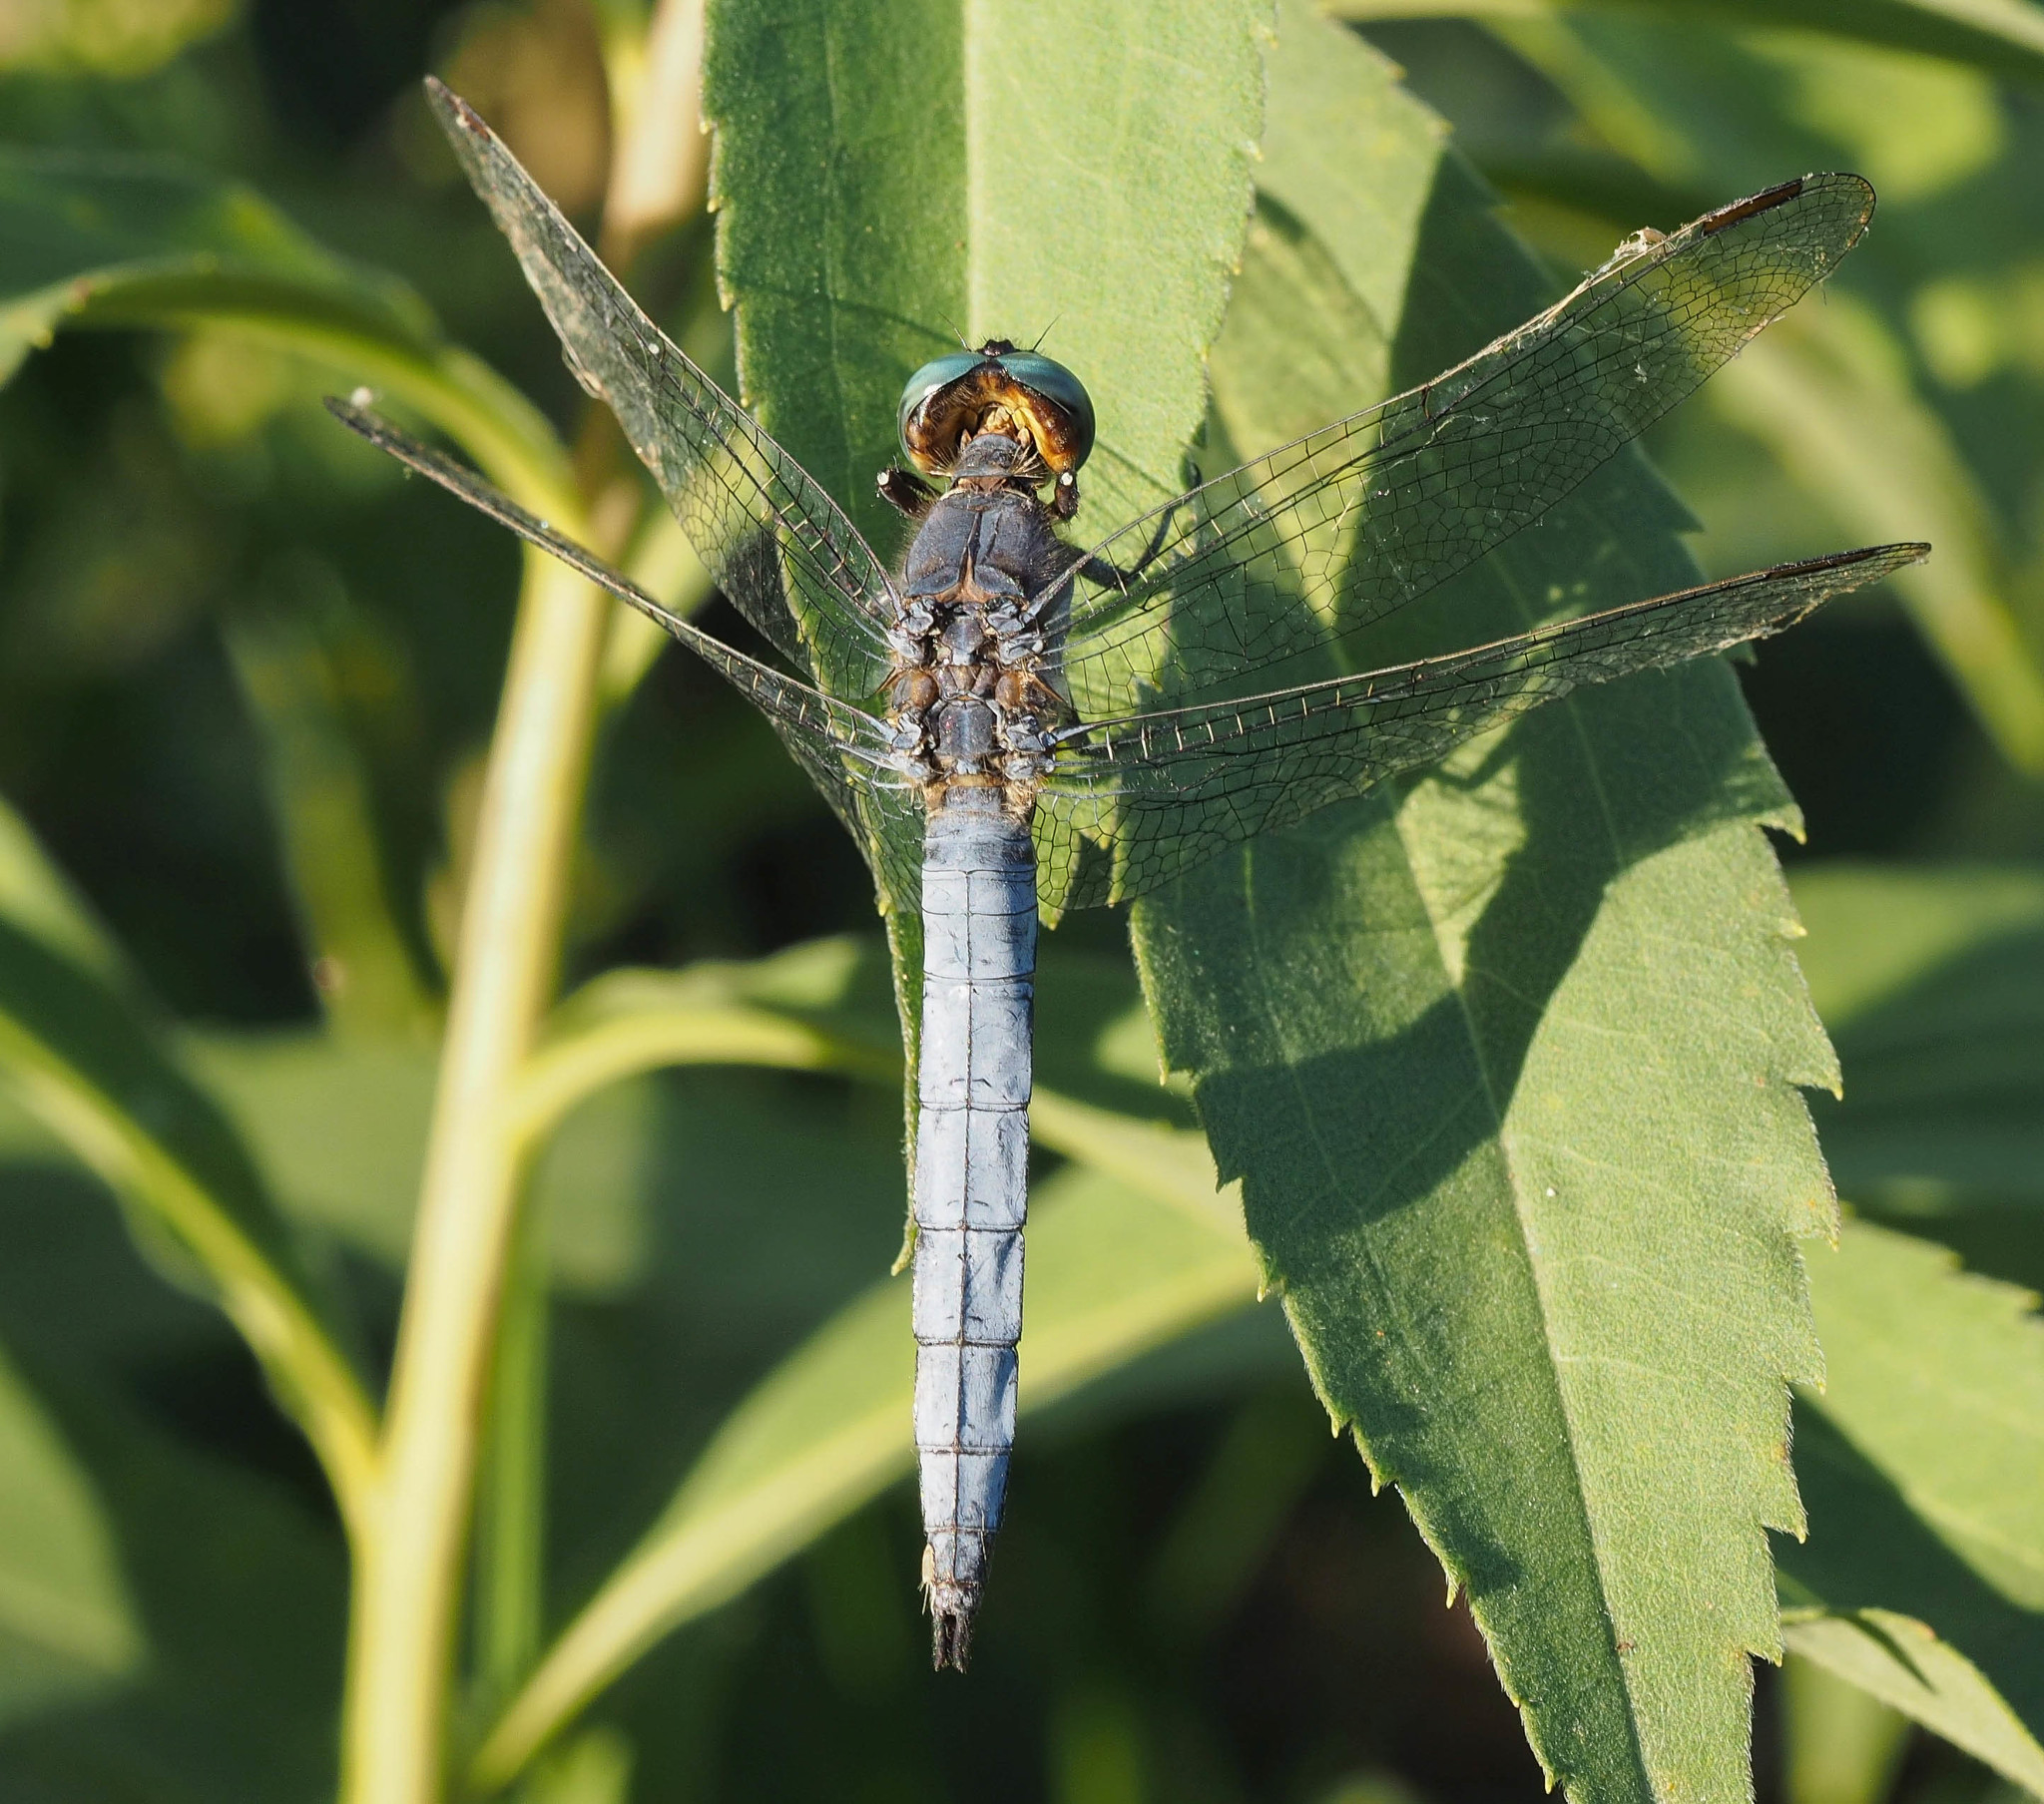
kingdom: Animalia
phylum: Arthropoda
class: Insecta
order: Odonata
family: Libellulidae
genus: Orthetrum
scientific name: Orthetrum coerulescens
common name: Keeled skimmer
